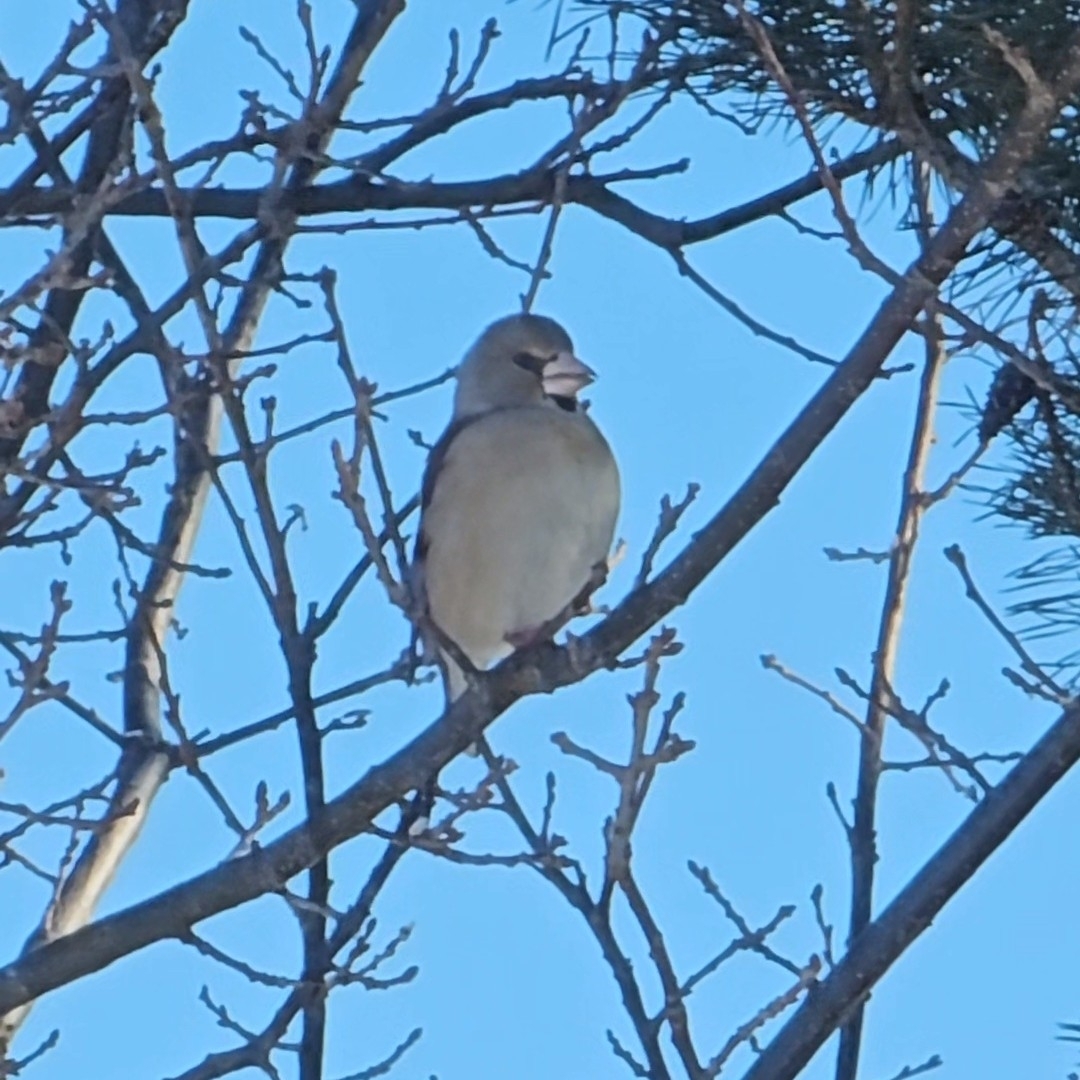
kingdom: Animalia
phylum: Chordata
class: Aves
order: Passeriformes
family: Fringillidae
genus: Coccothraustes
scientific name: Coccothraustes coccothraustes
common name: Hawfinch
